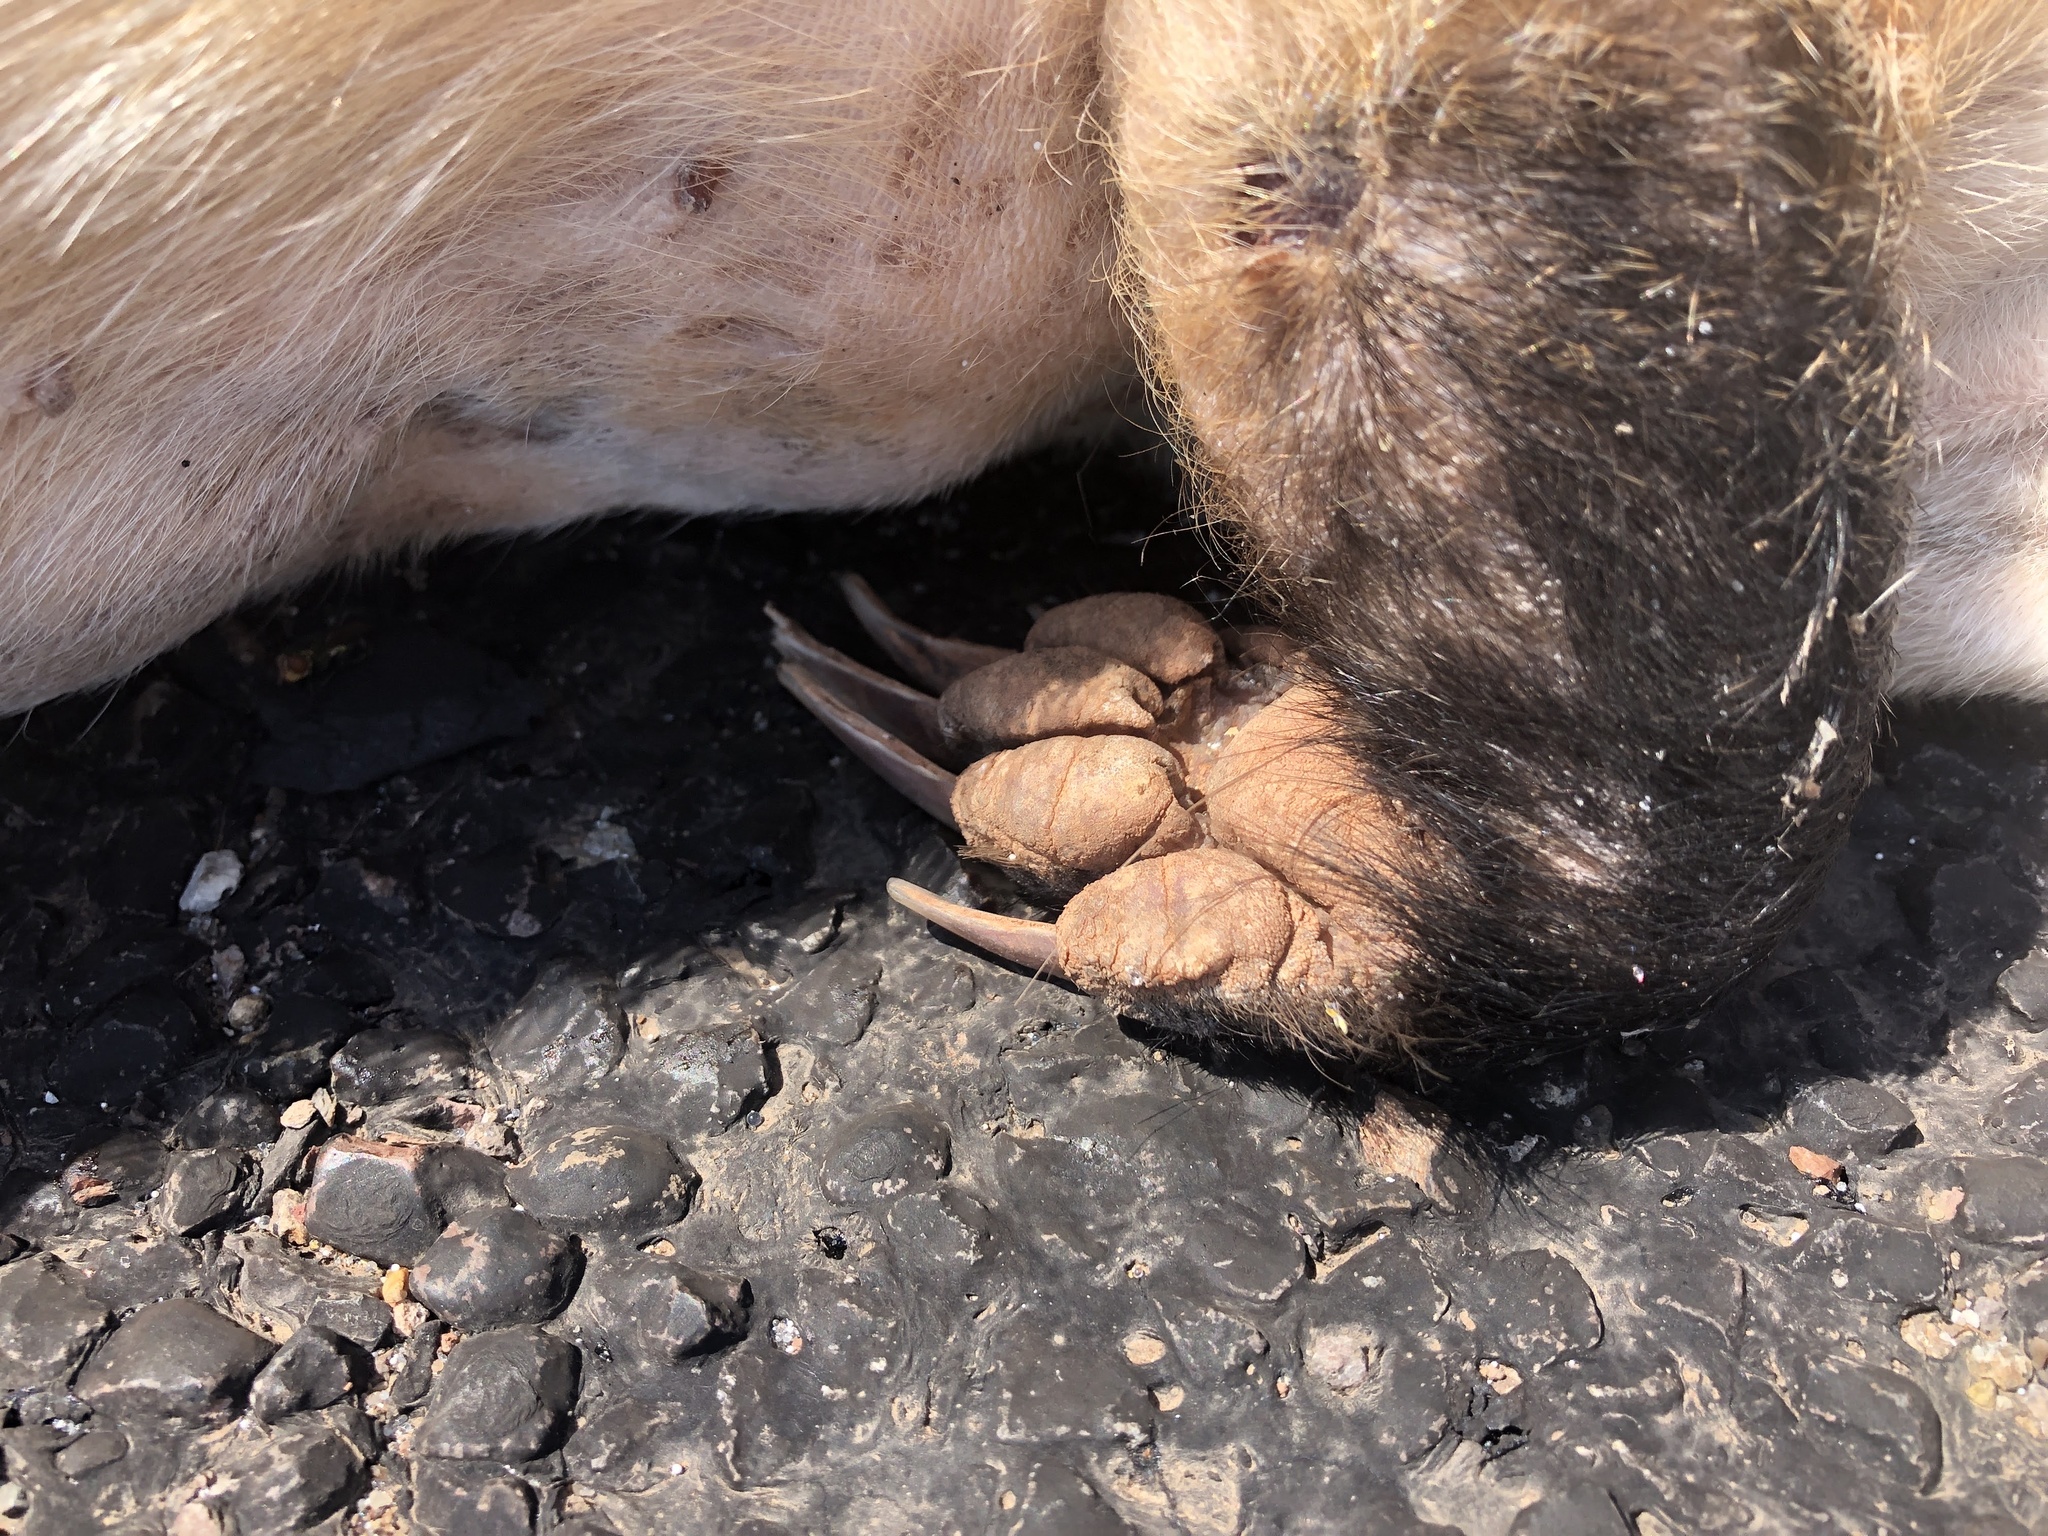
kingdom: Animalia
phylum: Chordata
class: Mammalia
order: Carnivora
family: Mustelidae
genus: Taxidea
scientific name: Taxidea taxus
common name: American badger
